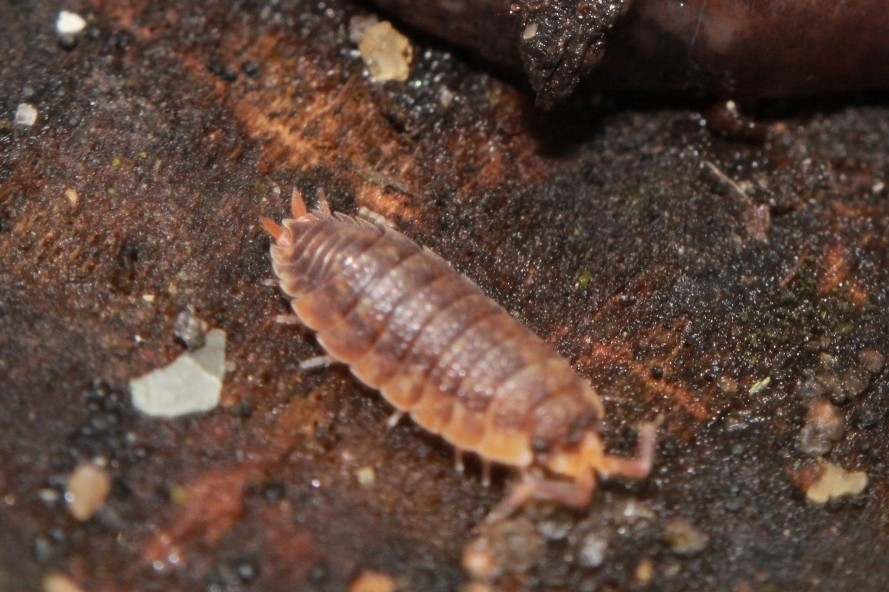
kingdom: Animalia
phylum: Arthropoda
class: Malacostraca
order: Isopoda
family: Porcellionidae
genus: Porcellio
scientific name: Porcellio scaber
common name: Common rough woodlouse
